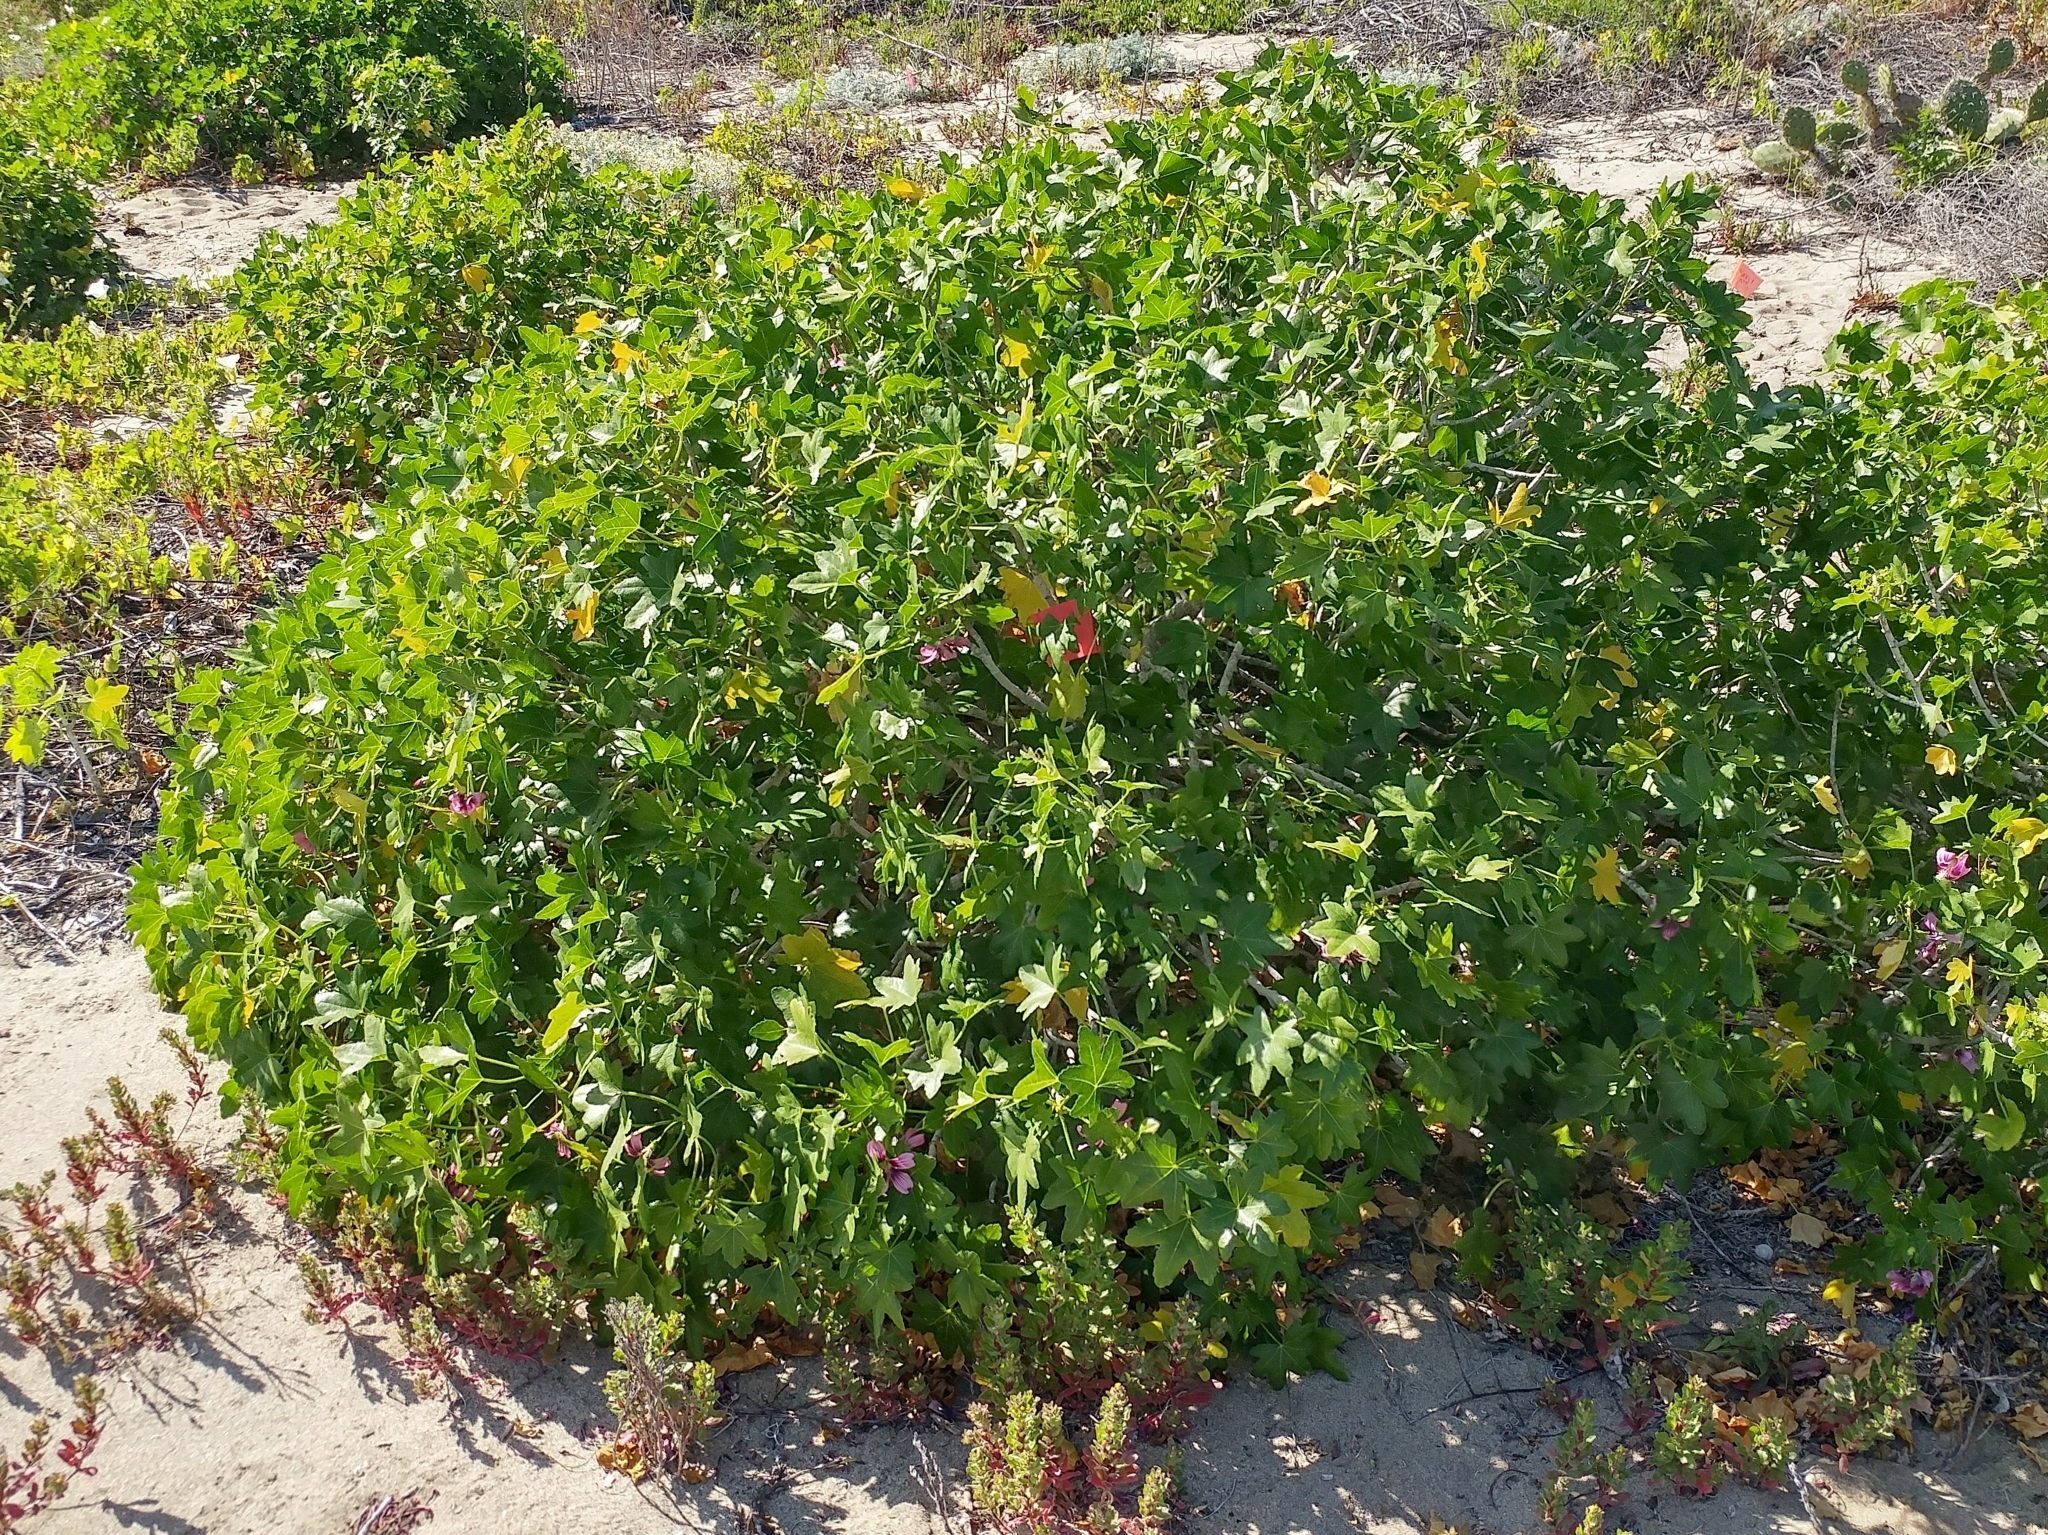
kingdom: Plantae
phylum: Tracheophyta
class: Magnoliopsida
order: Malvales
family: Malvaceae
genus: Malva
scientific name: Malva assurgentiflora
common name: Island mallow
